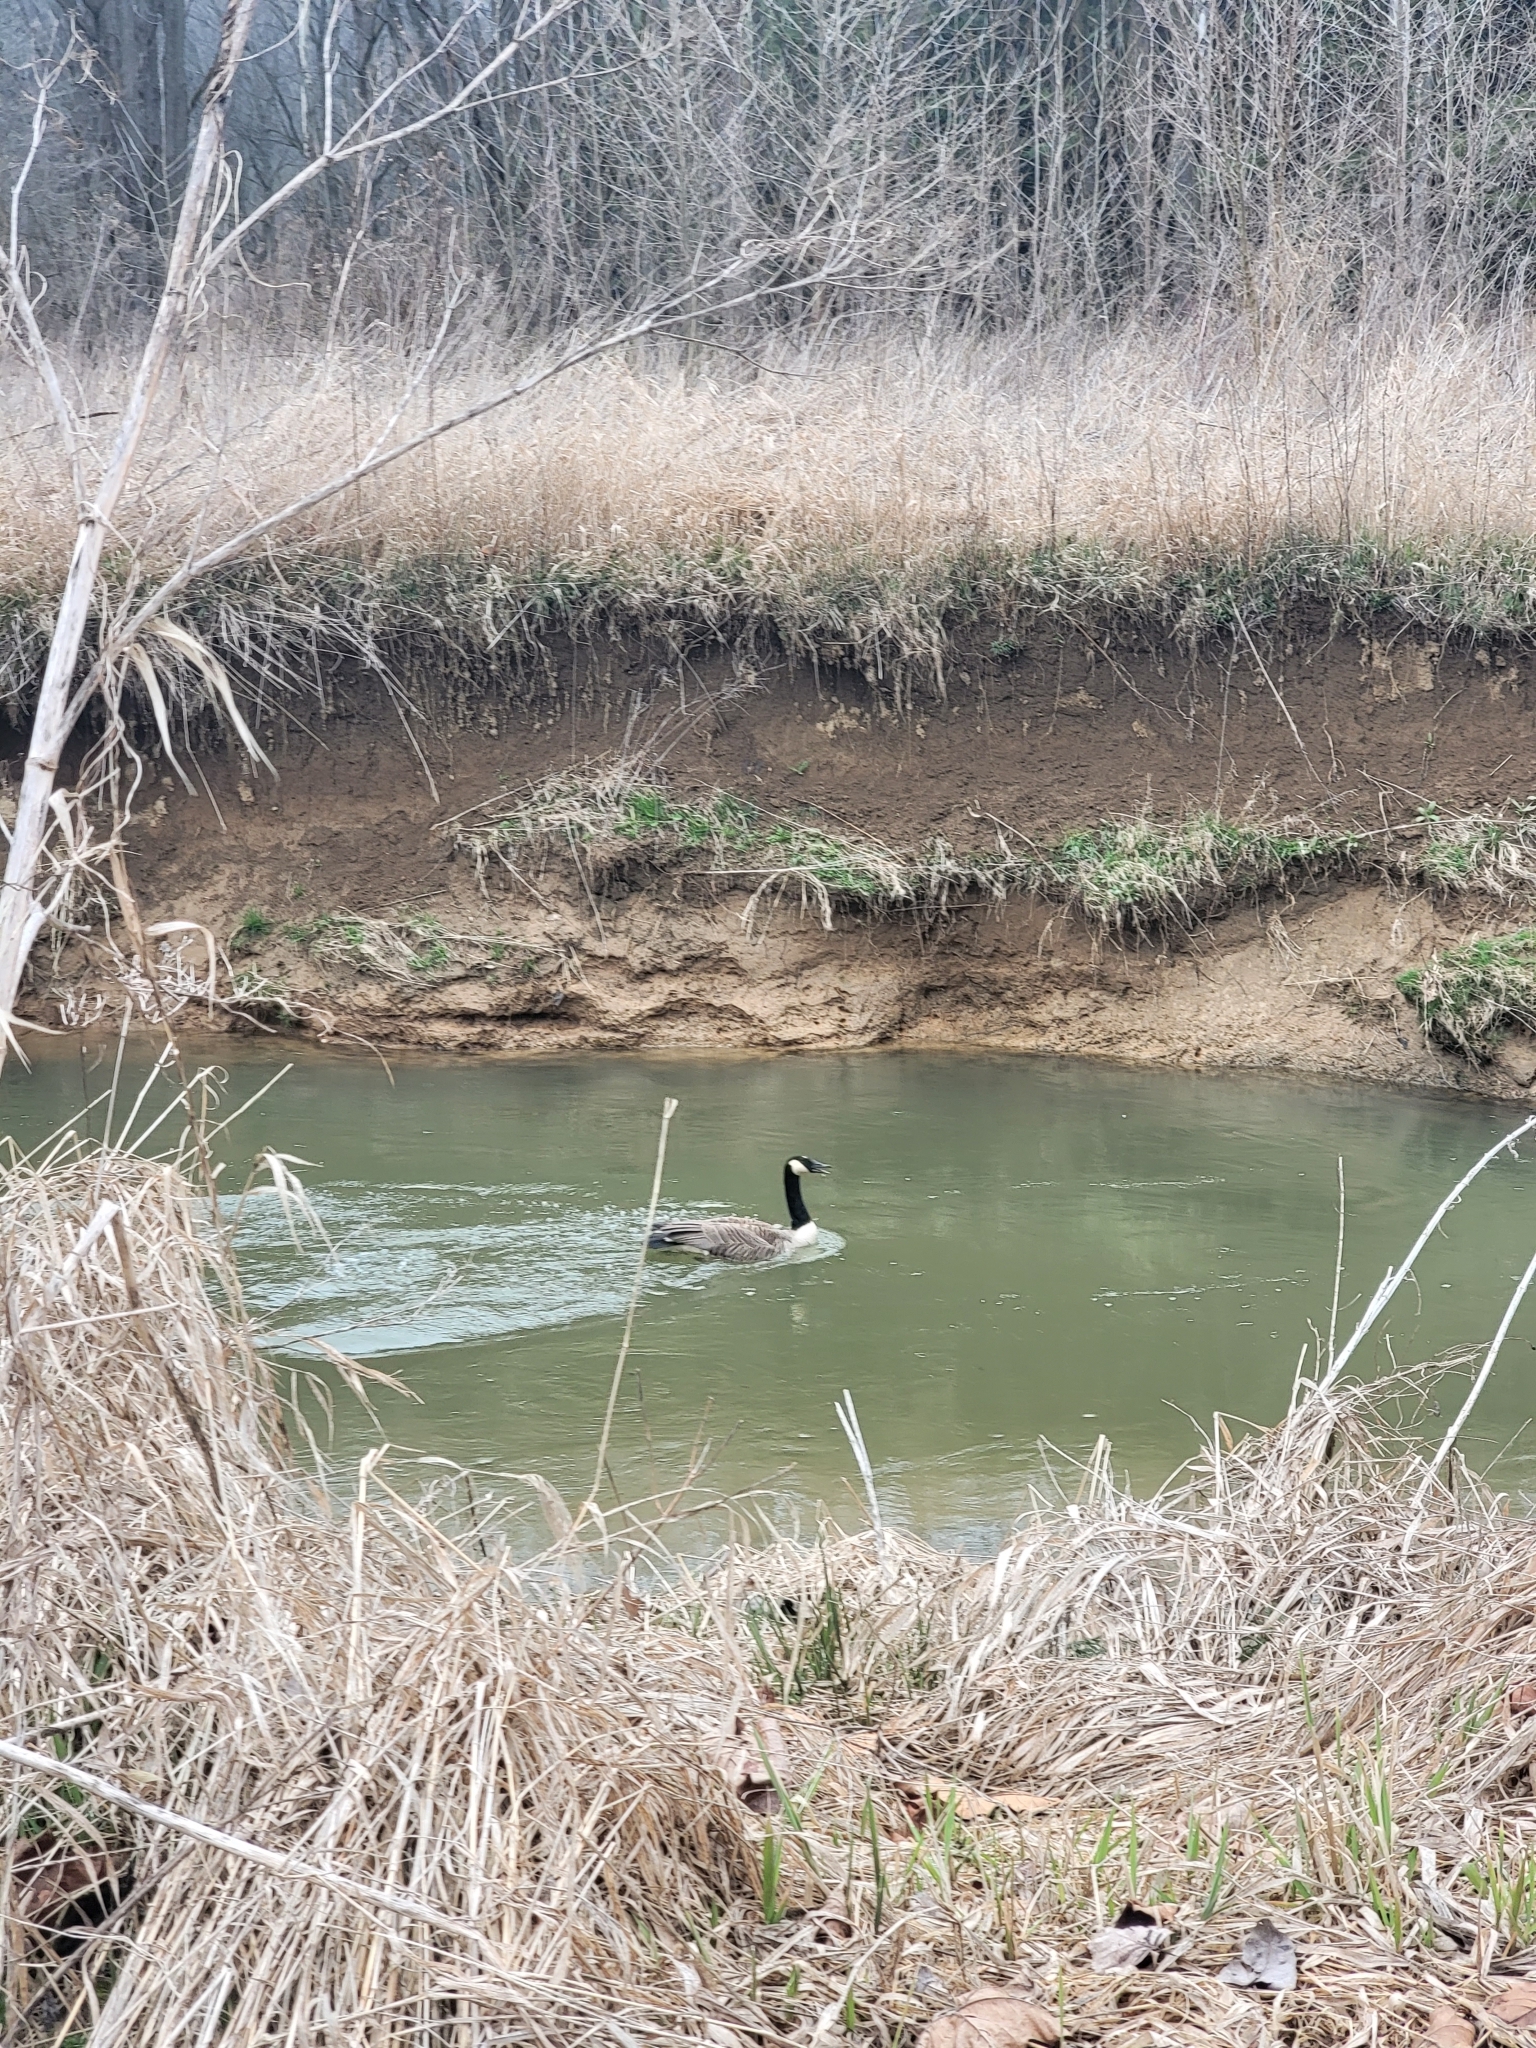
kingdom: Animalia
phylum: Chordata
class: Aves
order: Anseriformes
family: Anatidae
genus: Branta
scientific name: Branta canadensis
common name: Canada goose
